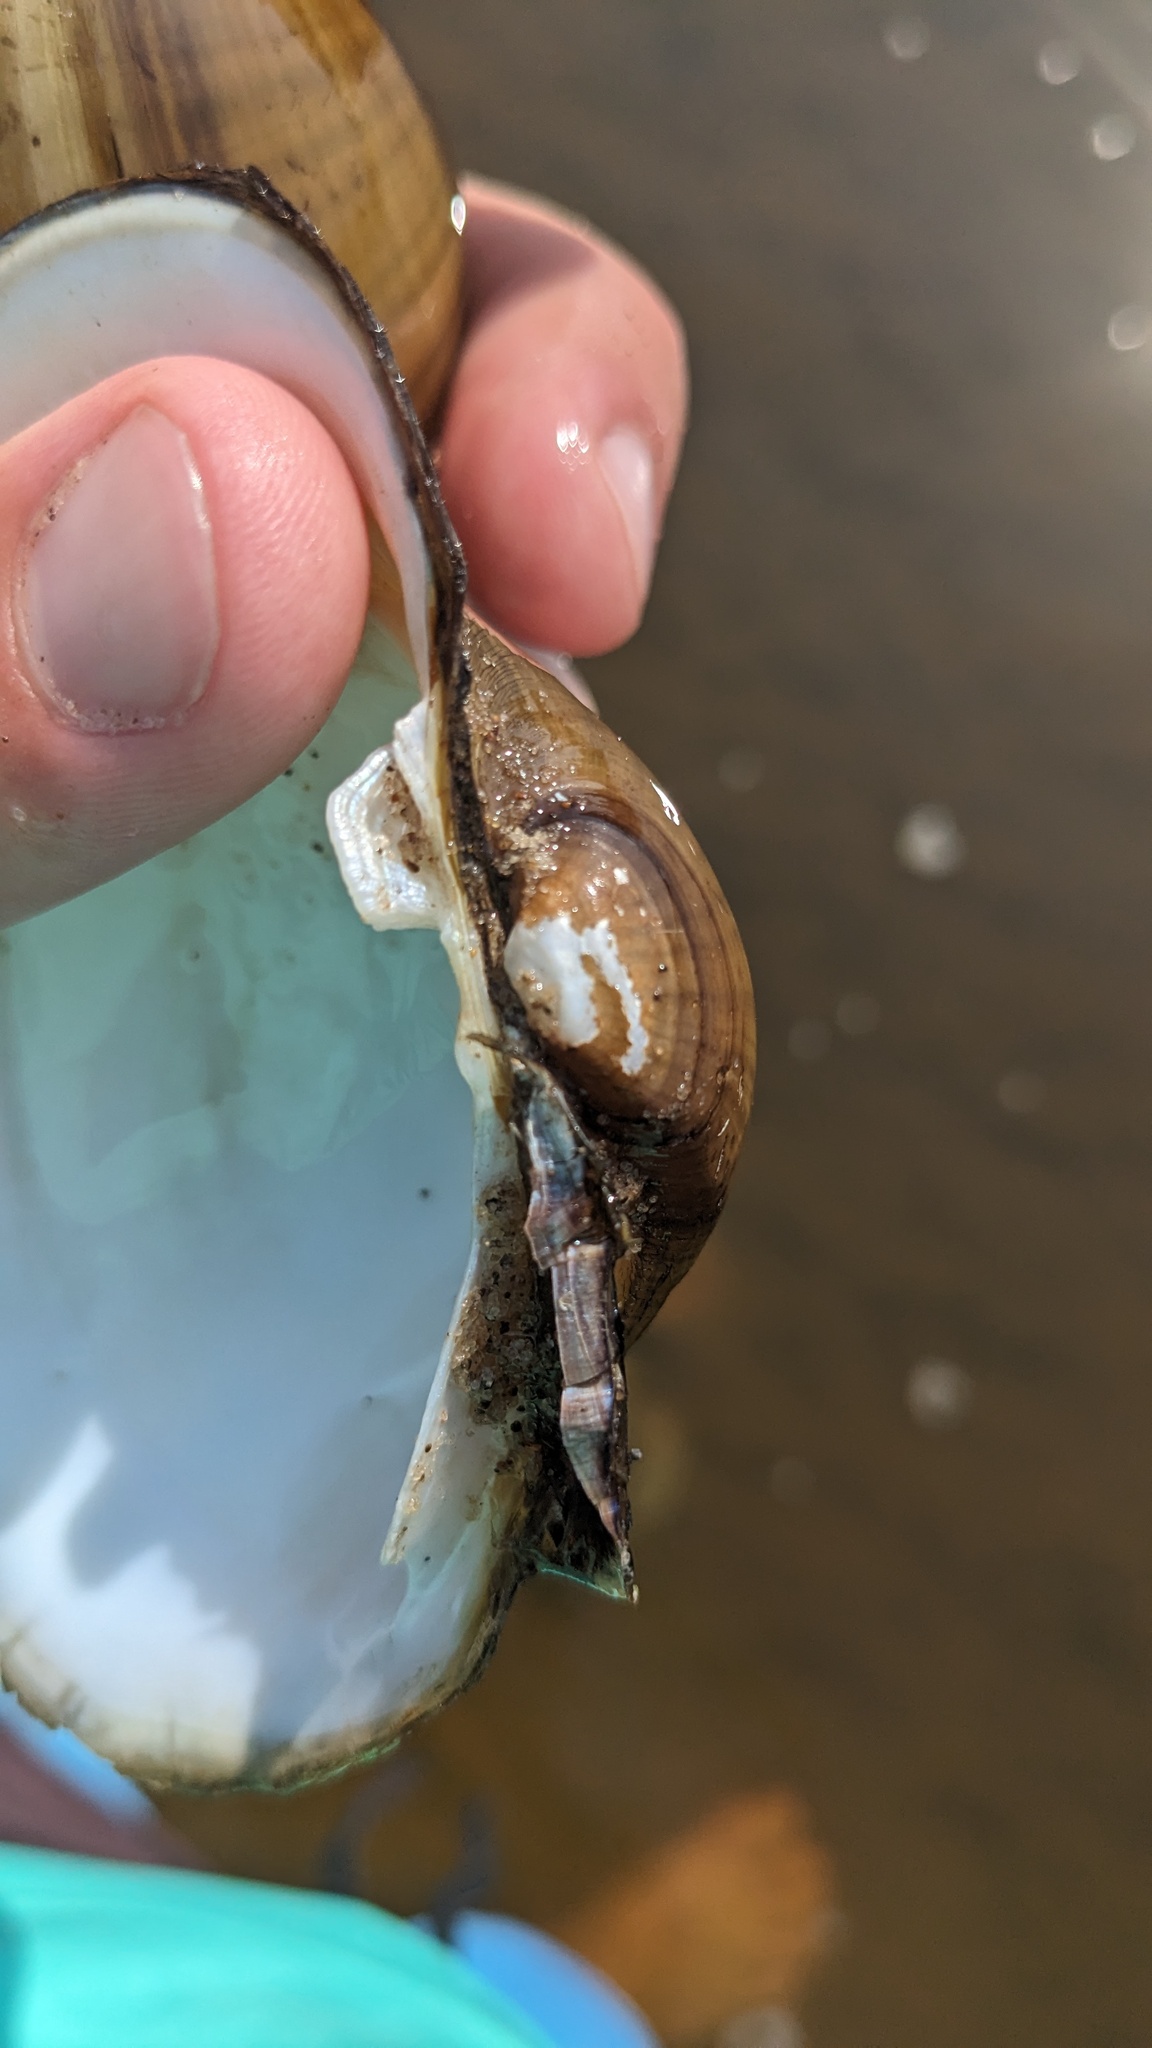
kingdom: Animalia
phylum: Mollusca
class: Bivalvia
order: Unionida
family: Unionidae
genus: Lampsilis
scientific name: Lampsilis cardium
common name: Plain pocketbook
